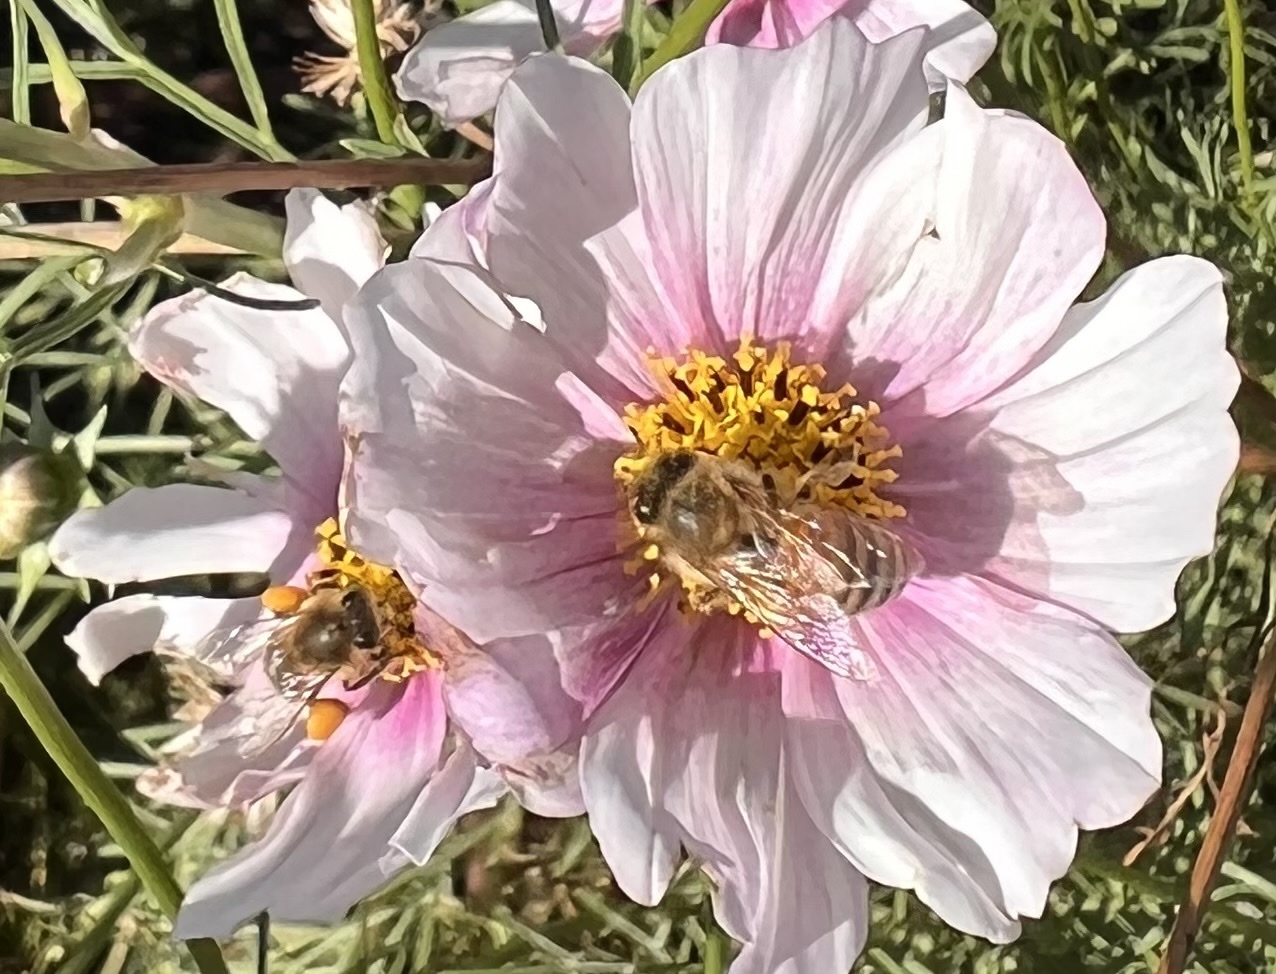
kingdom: Animalia
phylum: Arthropoda
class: Insecta
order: Hymenoptera
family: Apidae
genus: Apis
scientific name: Apis mellifera
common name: Honey bee
